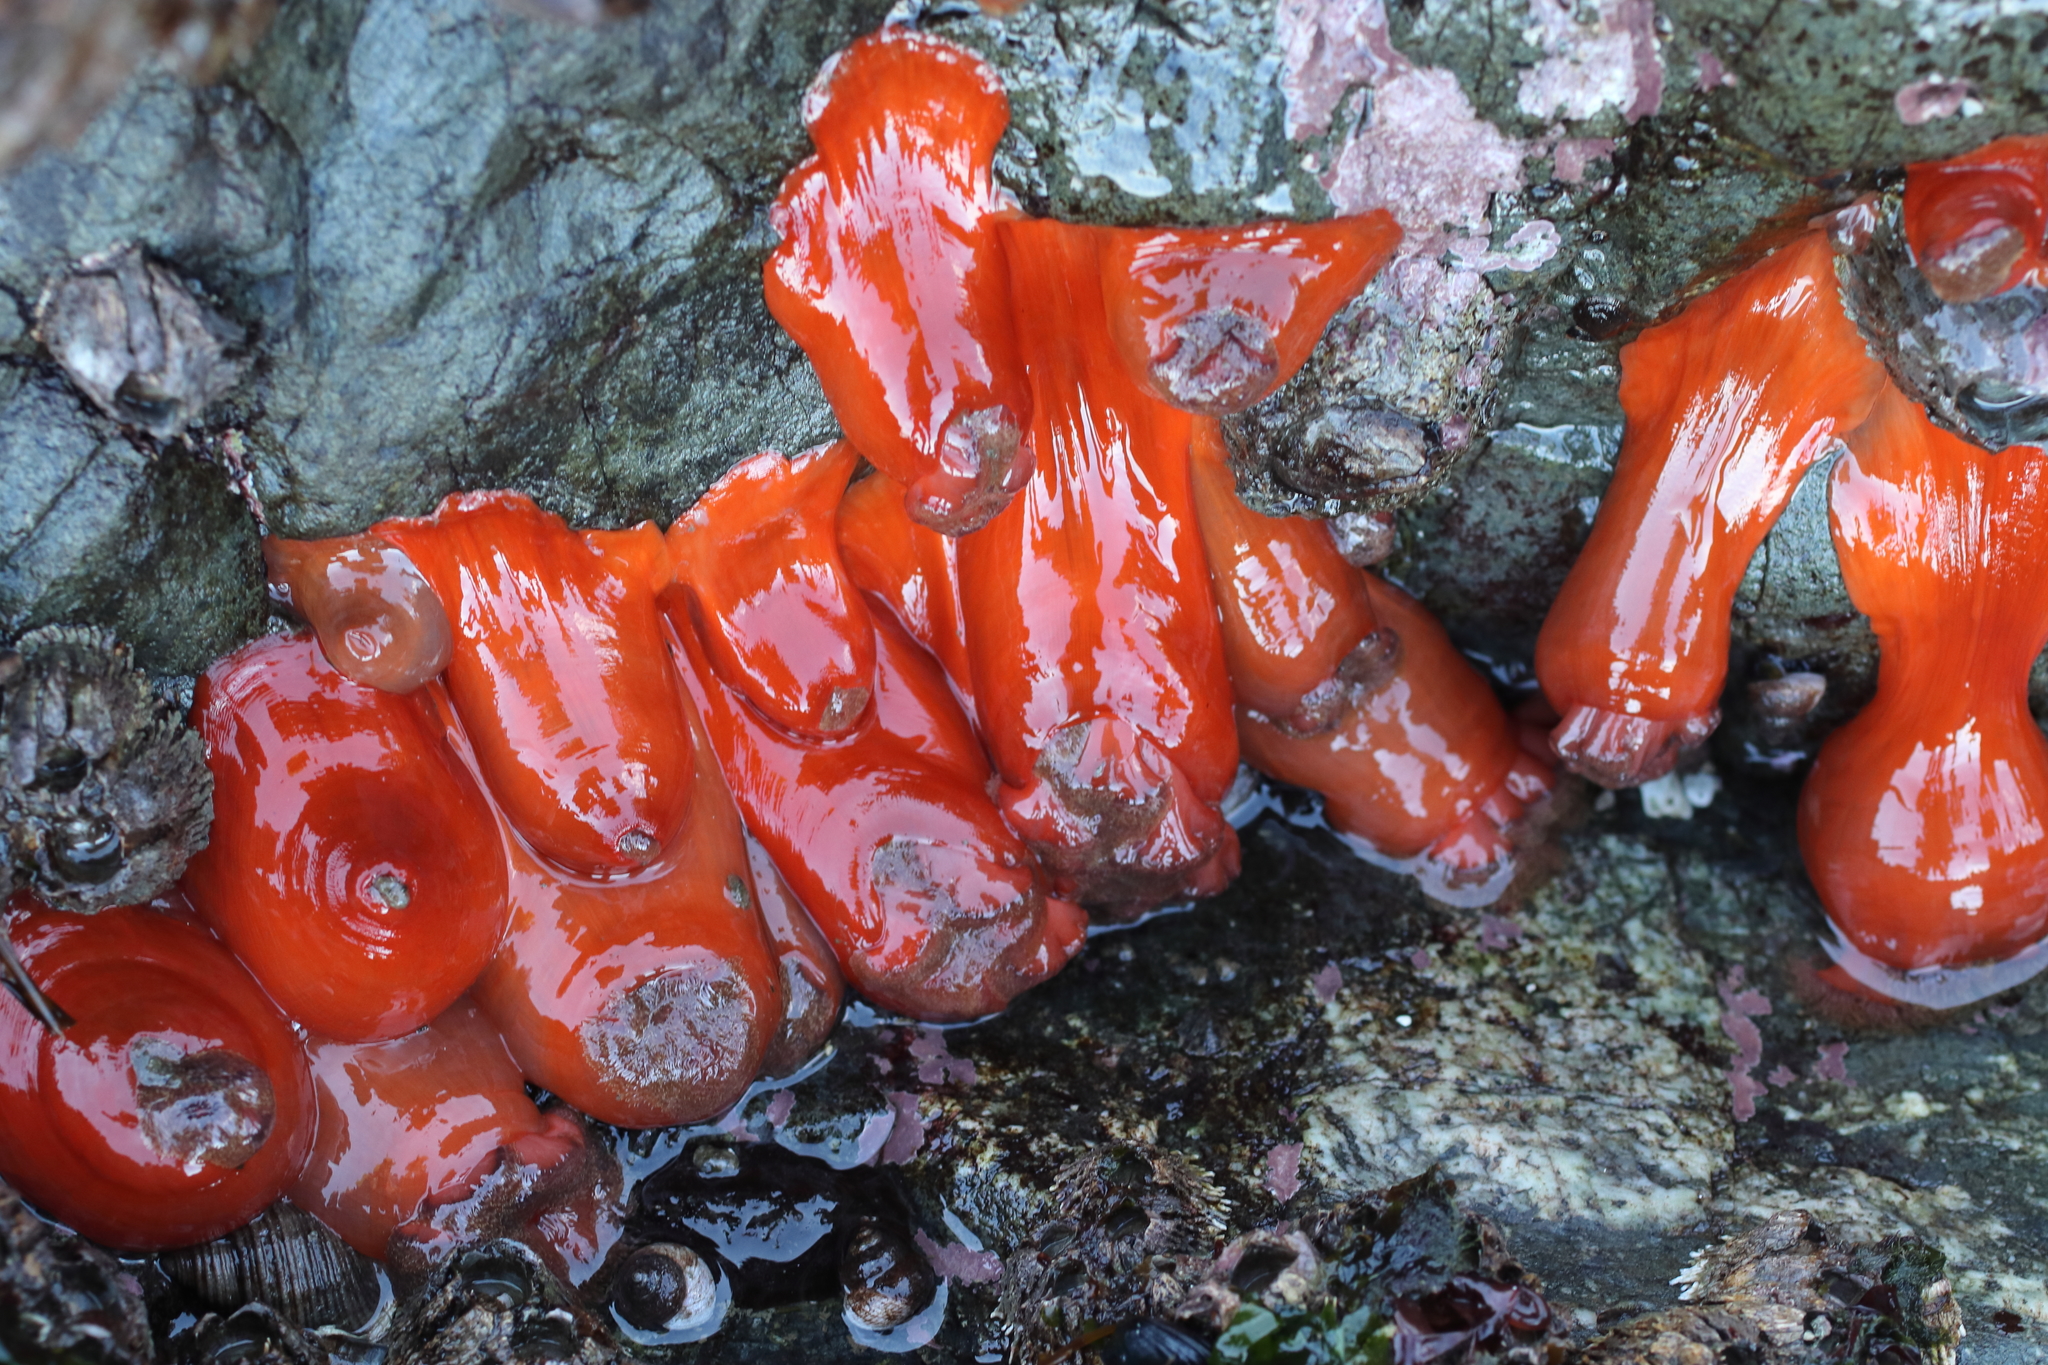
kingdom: Animalia
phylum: Cnidaria
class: Anthozoa
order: Actiniaria
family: Metridiidae
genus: Metridium
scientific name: Metridium senile
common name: Clonal plumose anemone
